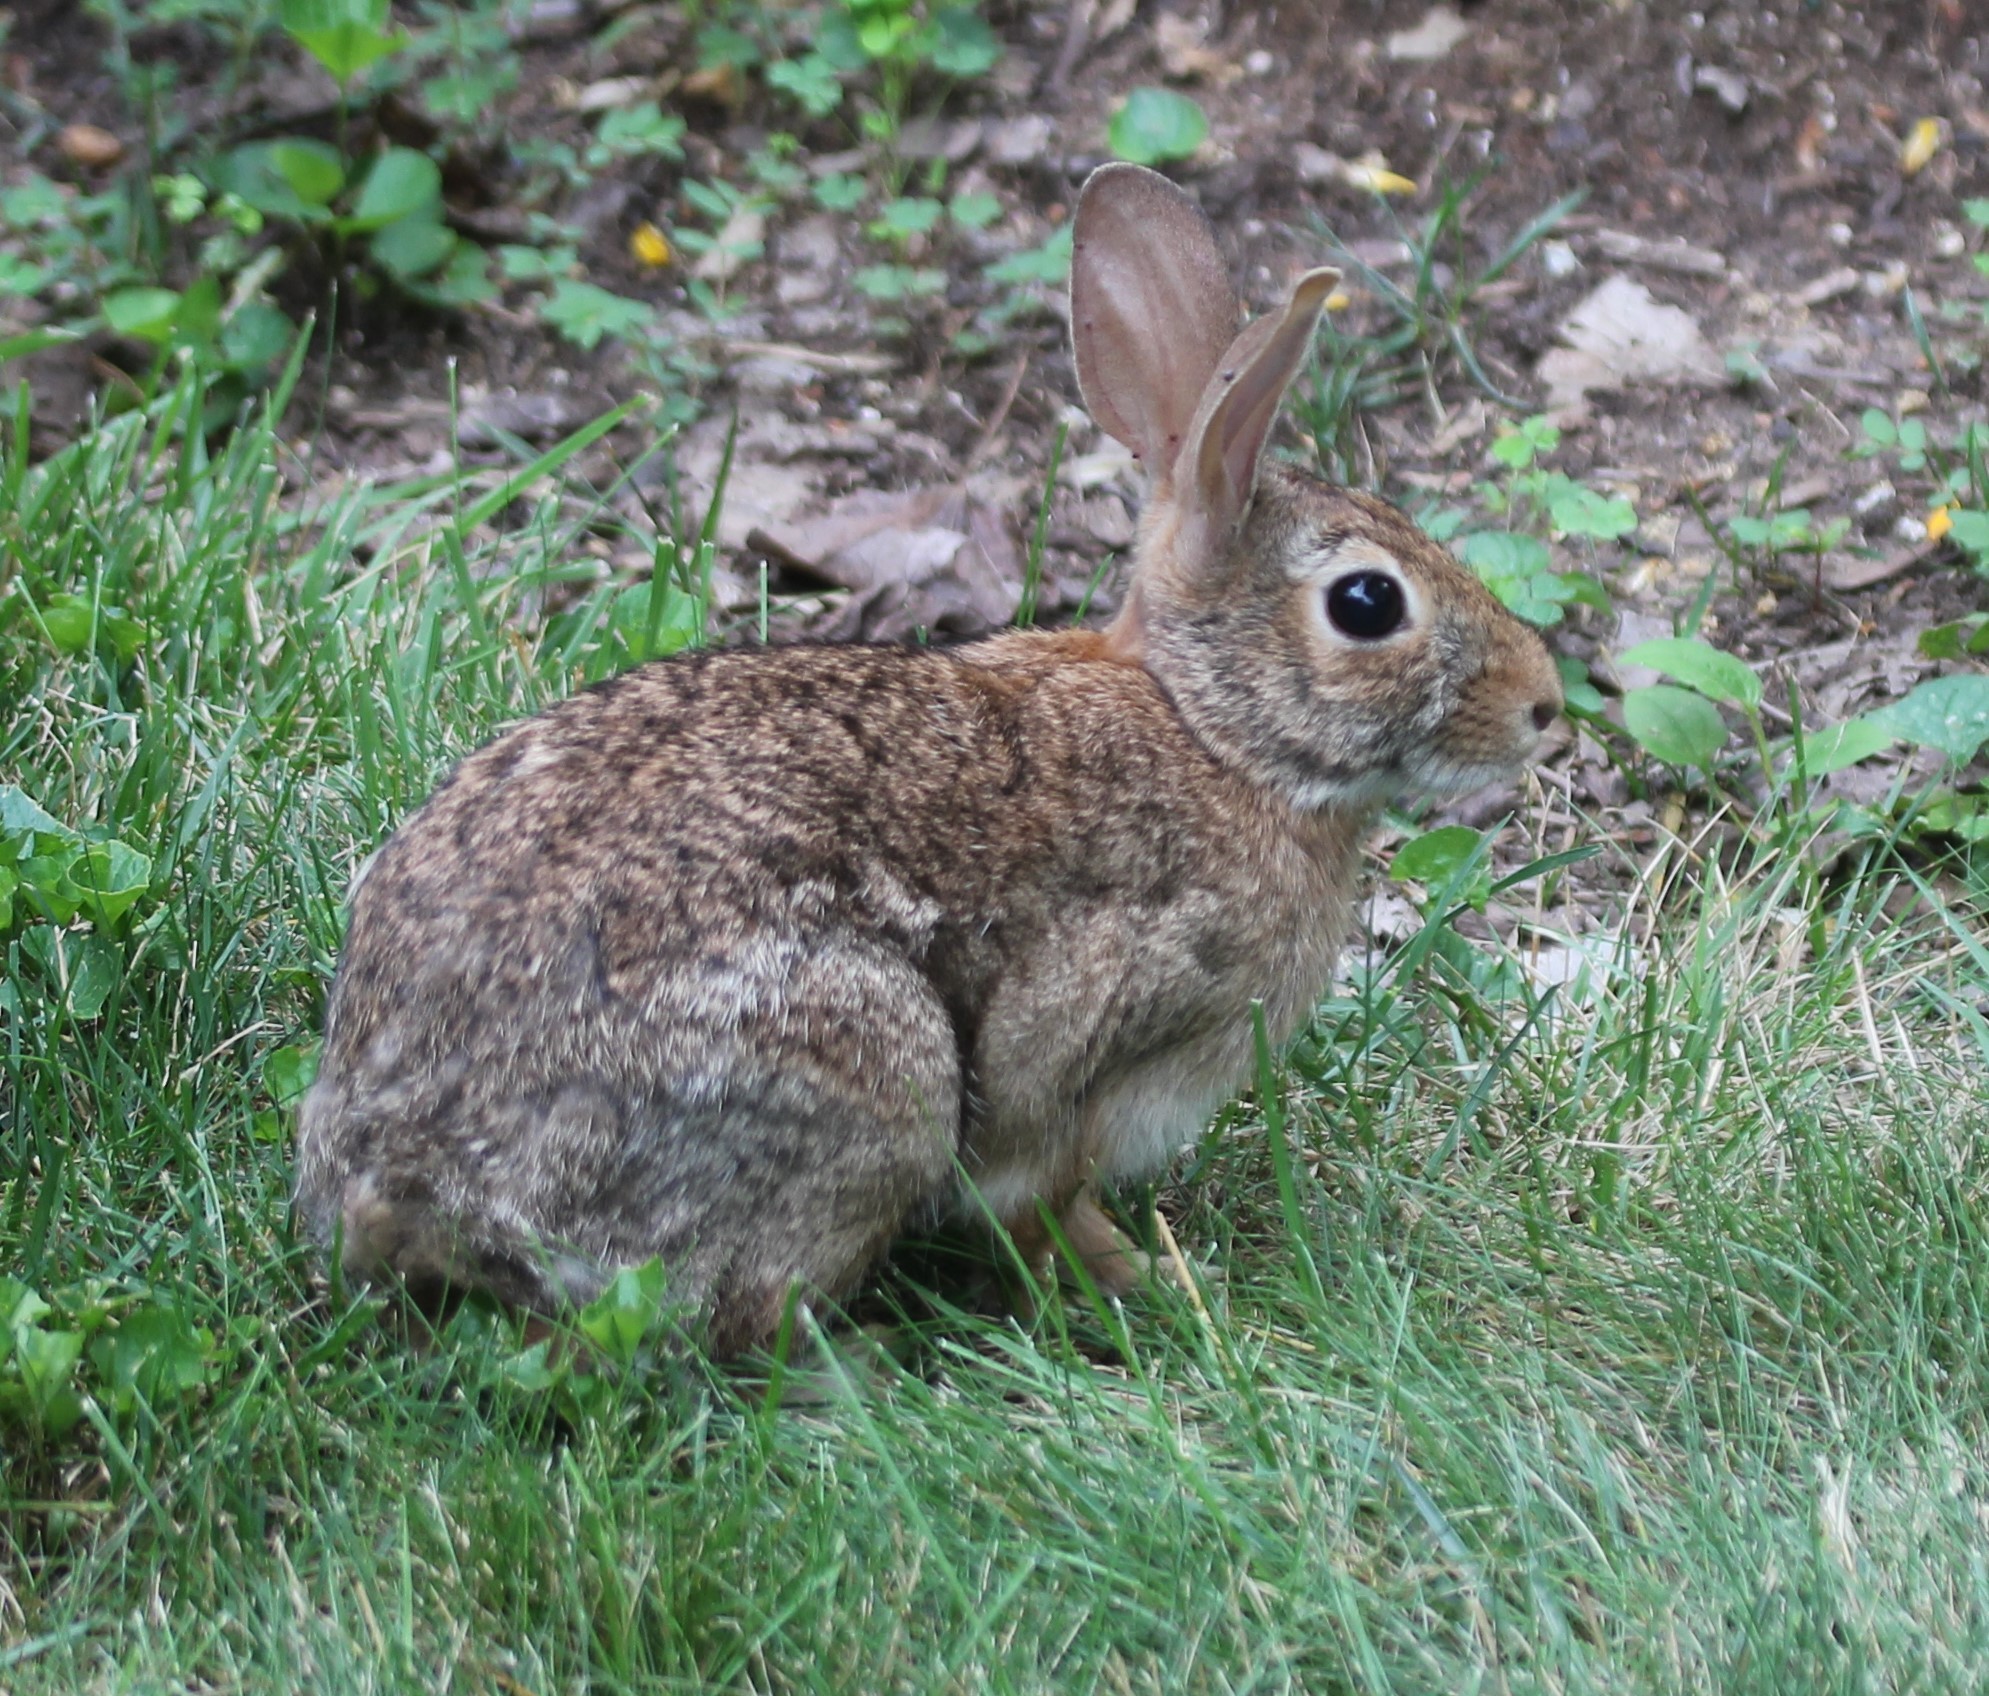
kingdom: Animalia
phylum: Chordata
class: Mammalia
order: Lagomorpha
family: Leporidae
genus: Sylvilagus
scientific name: Sylvilagus floridanus
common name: Eastern cottontail
